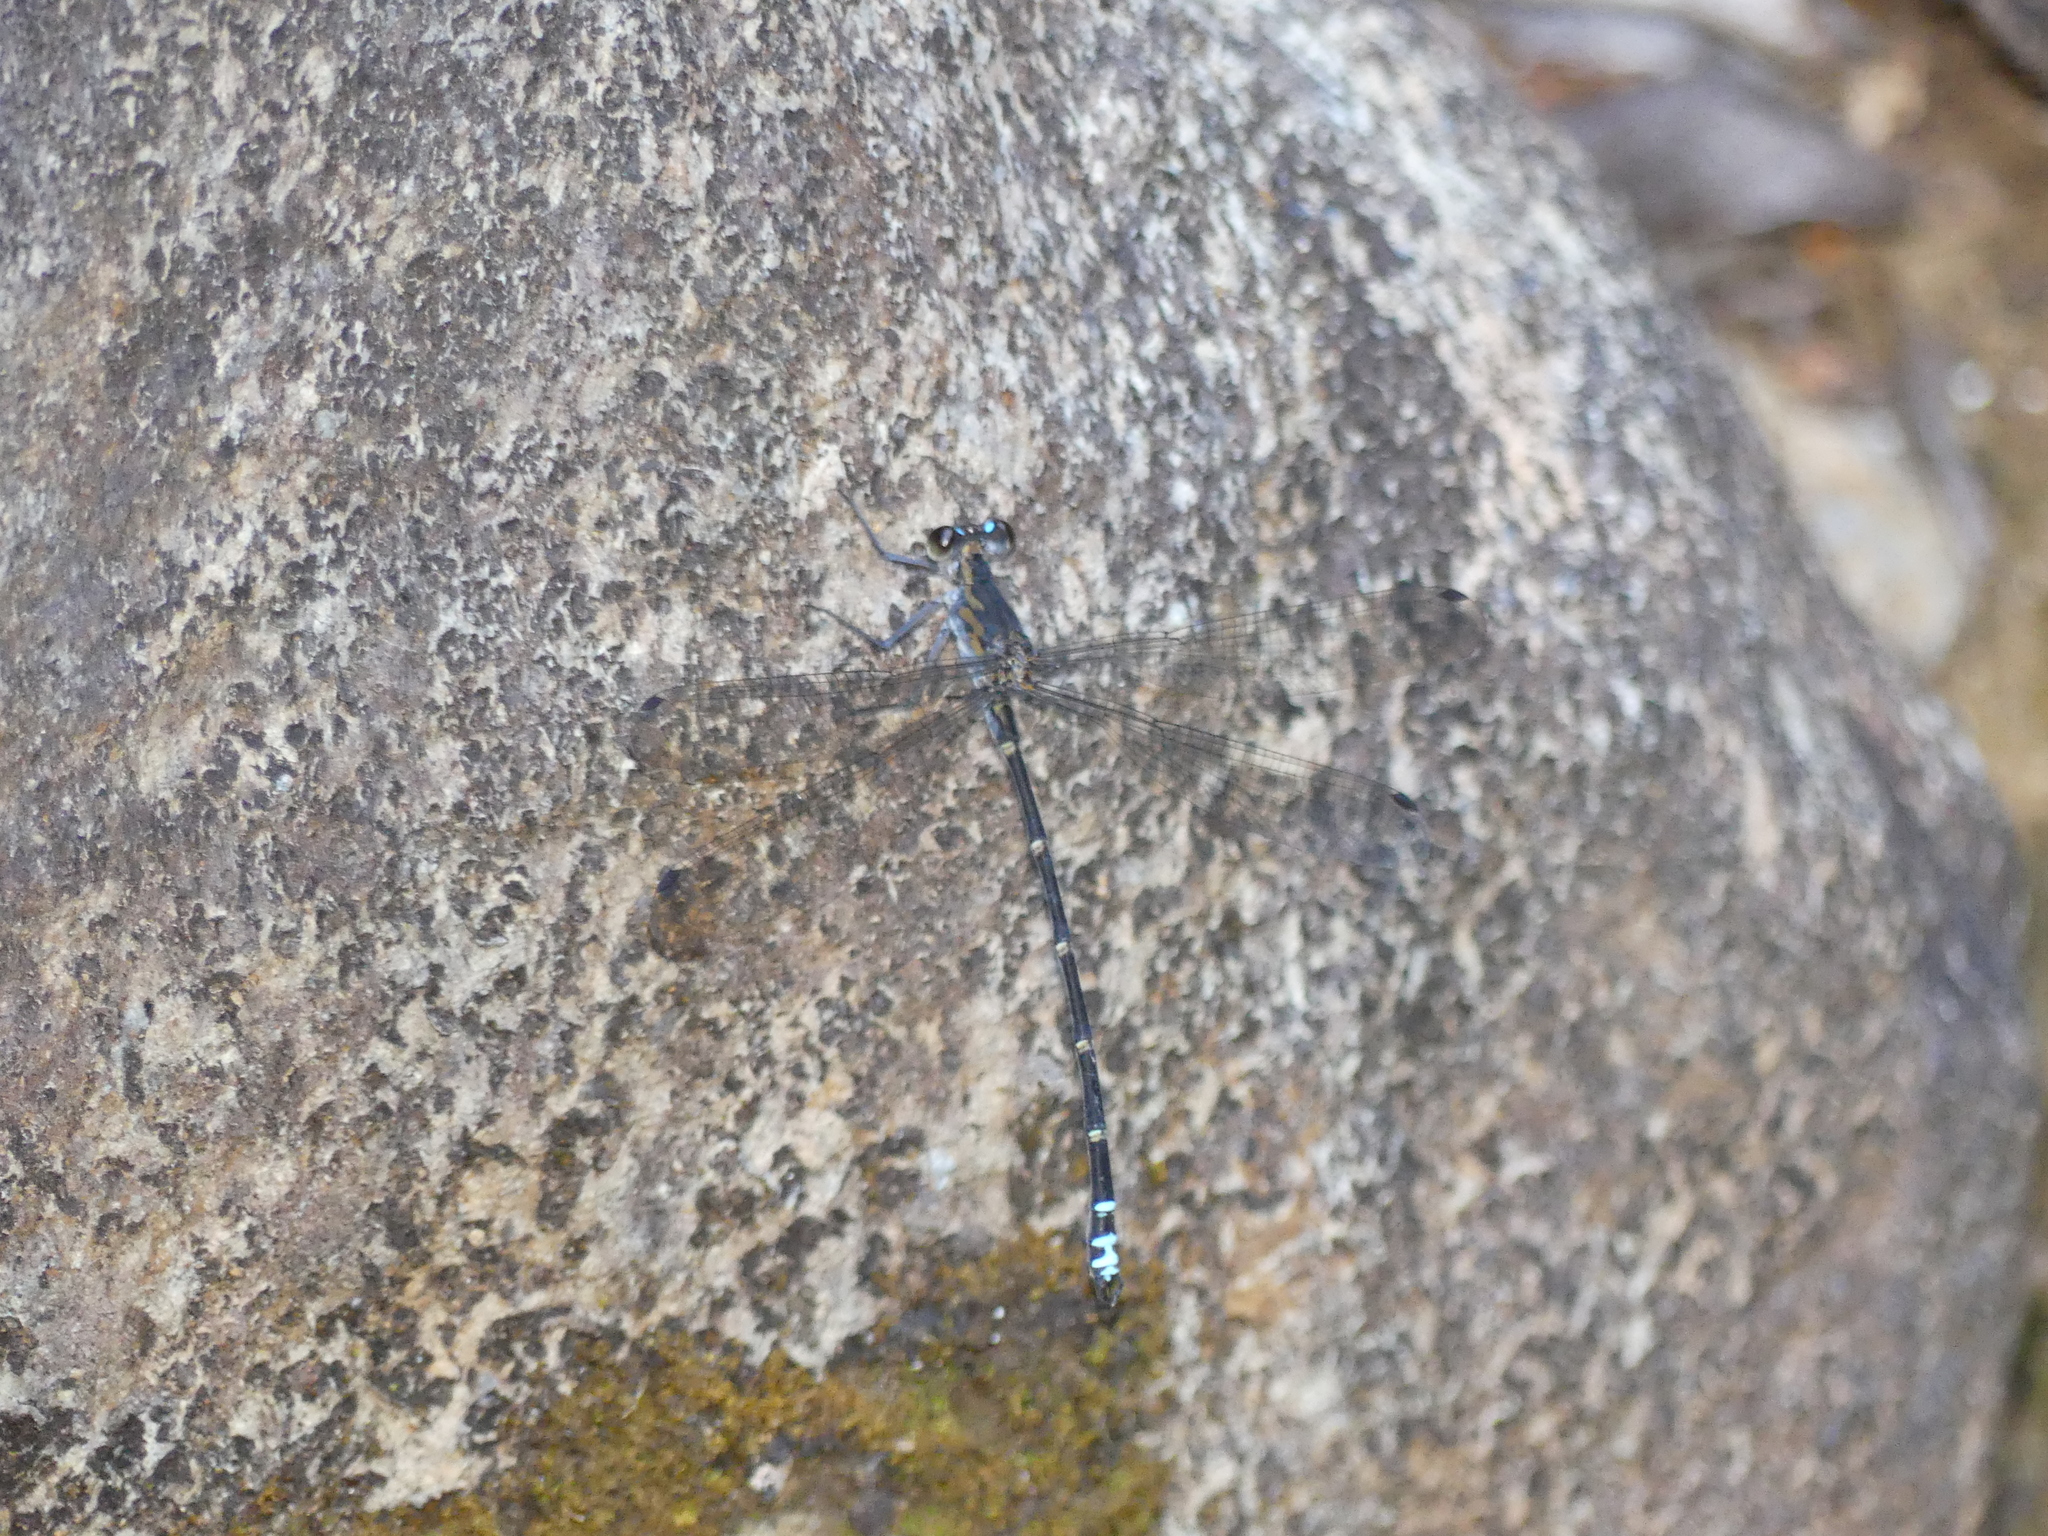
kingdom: Animalia
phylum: Arthropoda
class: Insecta
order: Odonata
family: Argiolestidae
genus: Caledopteryx
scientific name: Caledopteryx maculata
